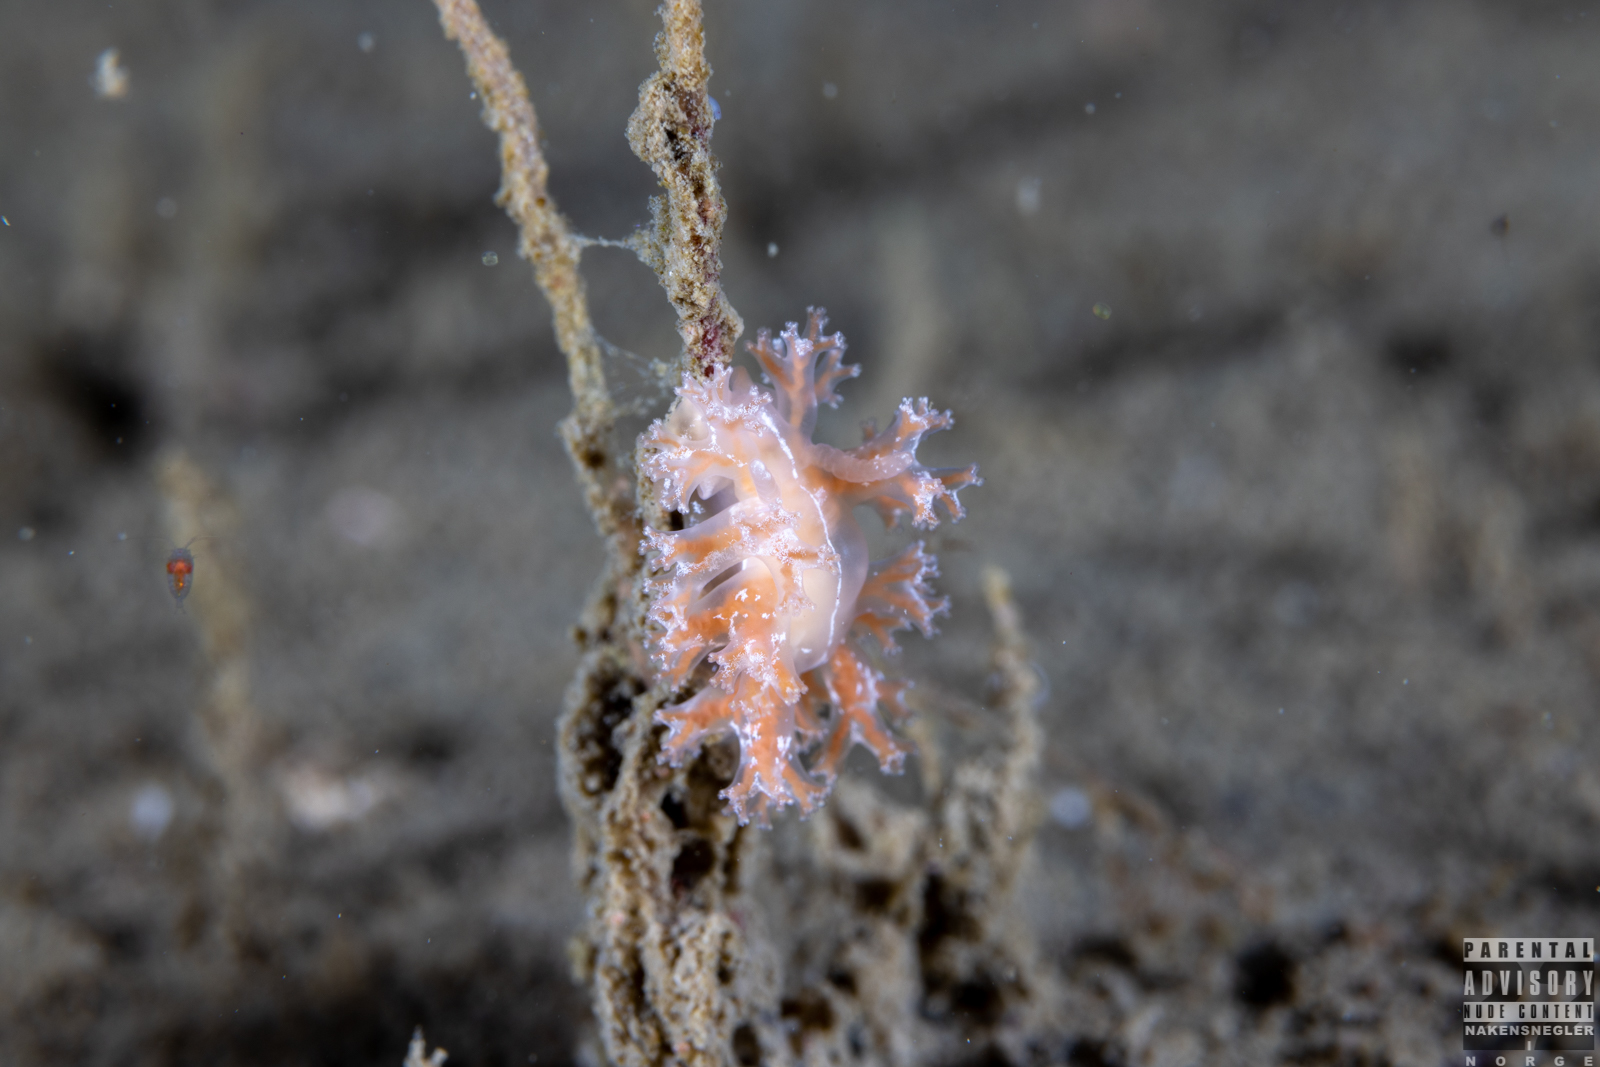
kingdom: Animalia
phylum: Mollusca
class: Gastropoda
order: Nudibranchia
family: Heroidae
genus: Hero
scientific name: Hero formosa
